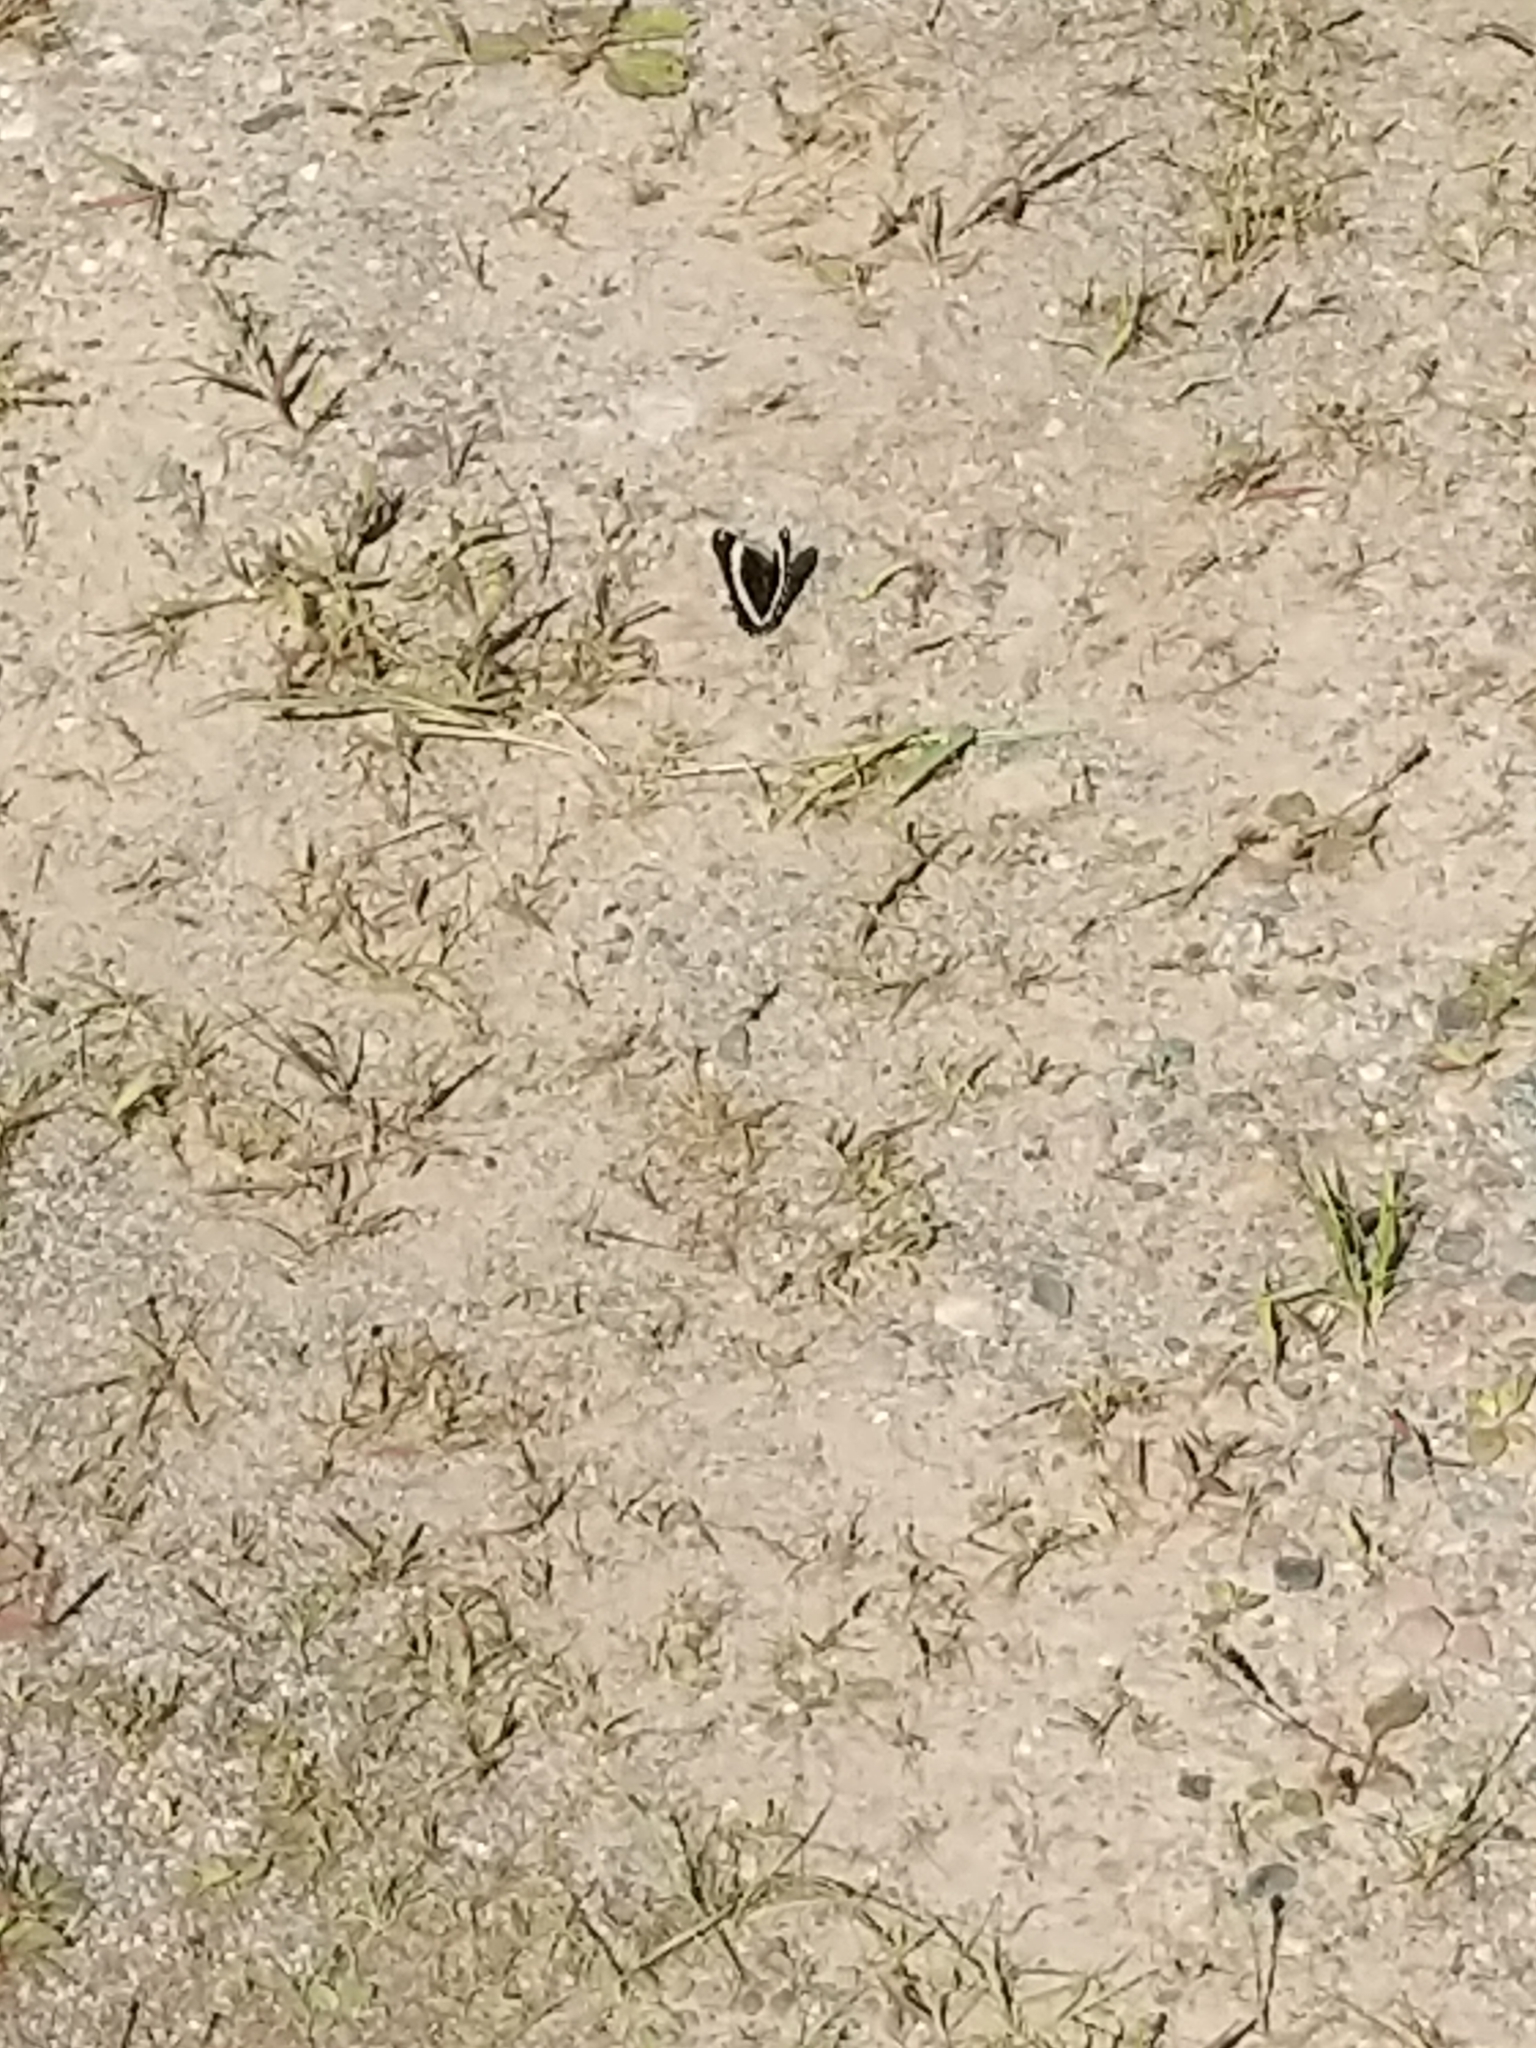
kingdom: Animalia
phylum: Arthropoda
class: Insecta
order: Lepidoptera
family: Nymphalidae
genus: Limenitis
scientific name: Limenitis arthemis
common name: Red-spotted admiral
